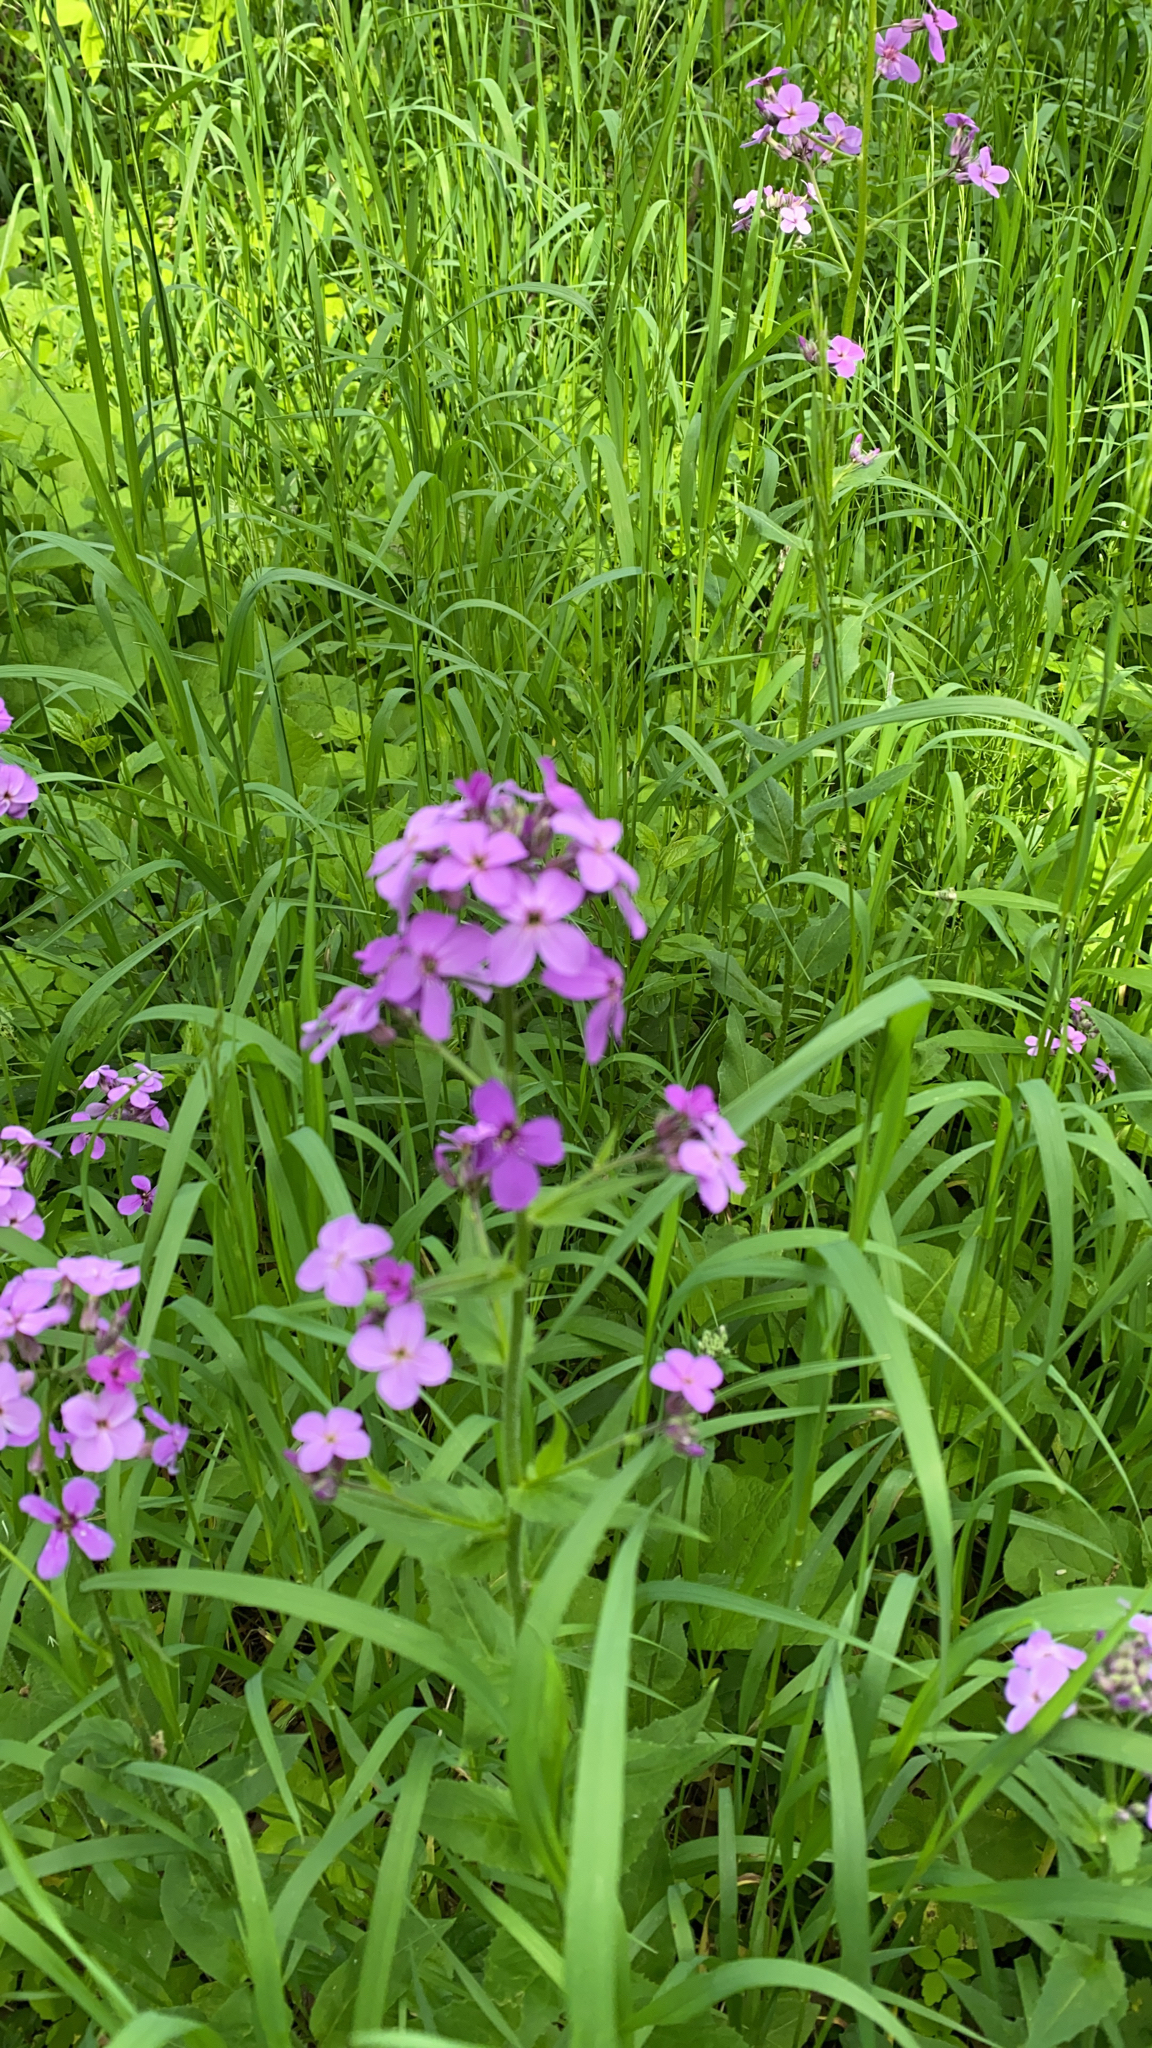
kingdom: Plantae
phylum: Tracheophyta
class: Magnoliopsida
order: Brassicales
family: Brassicaceae
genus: Hesperis
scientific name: Hesperis matronalis
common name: Dame's-violet
